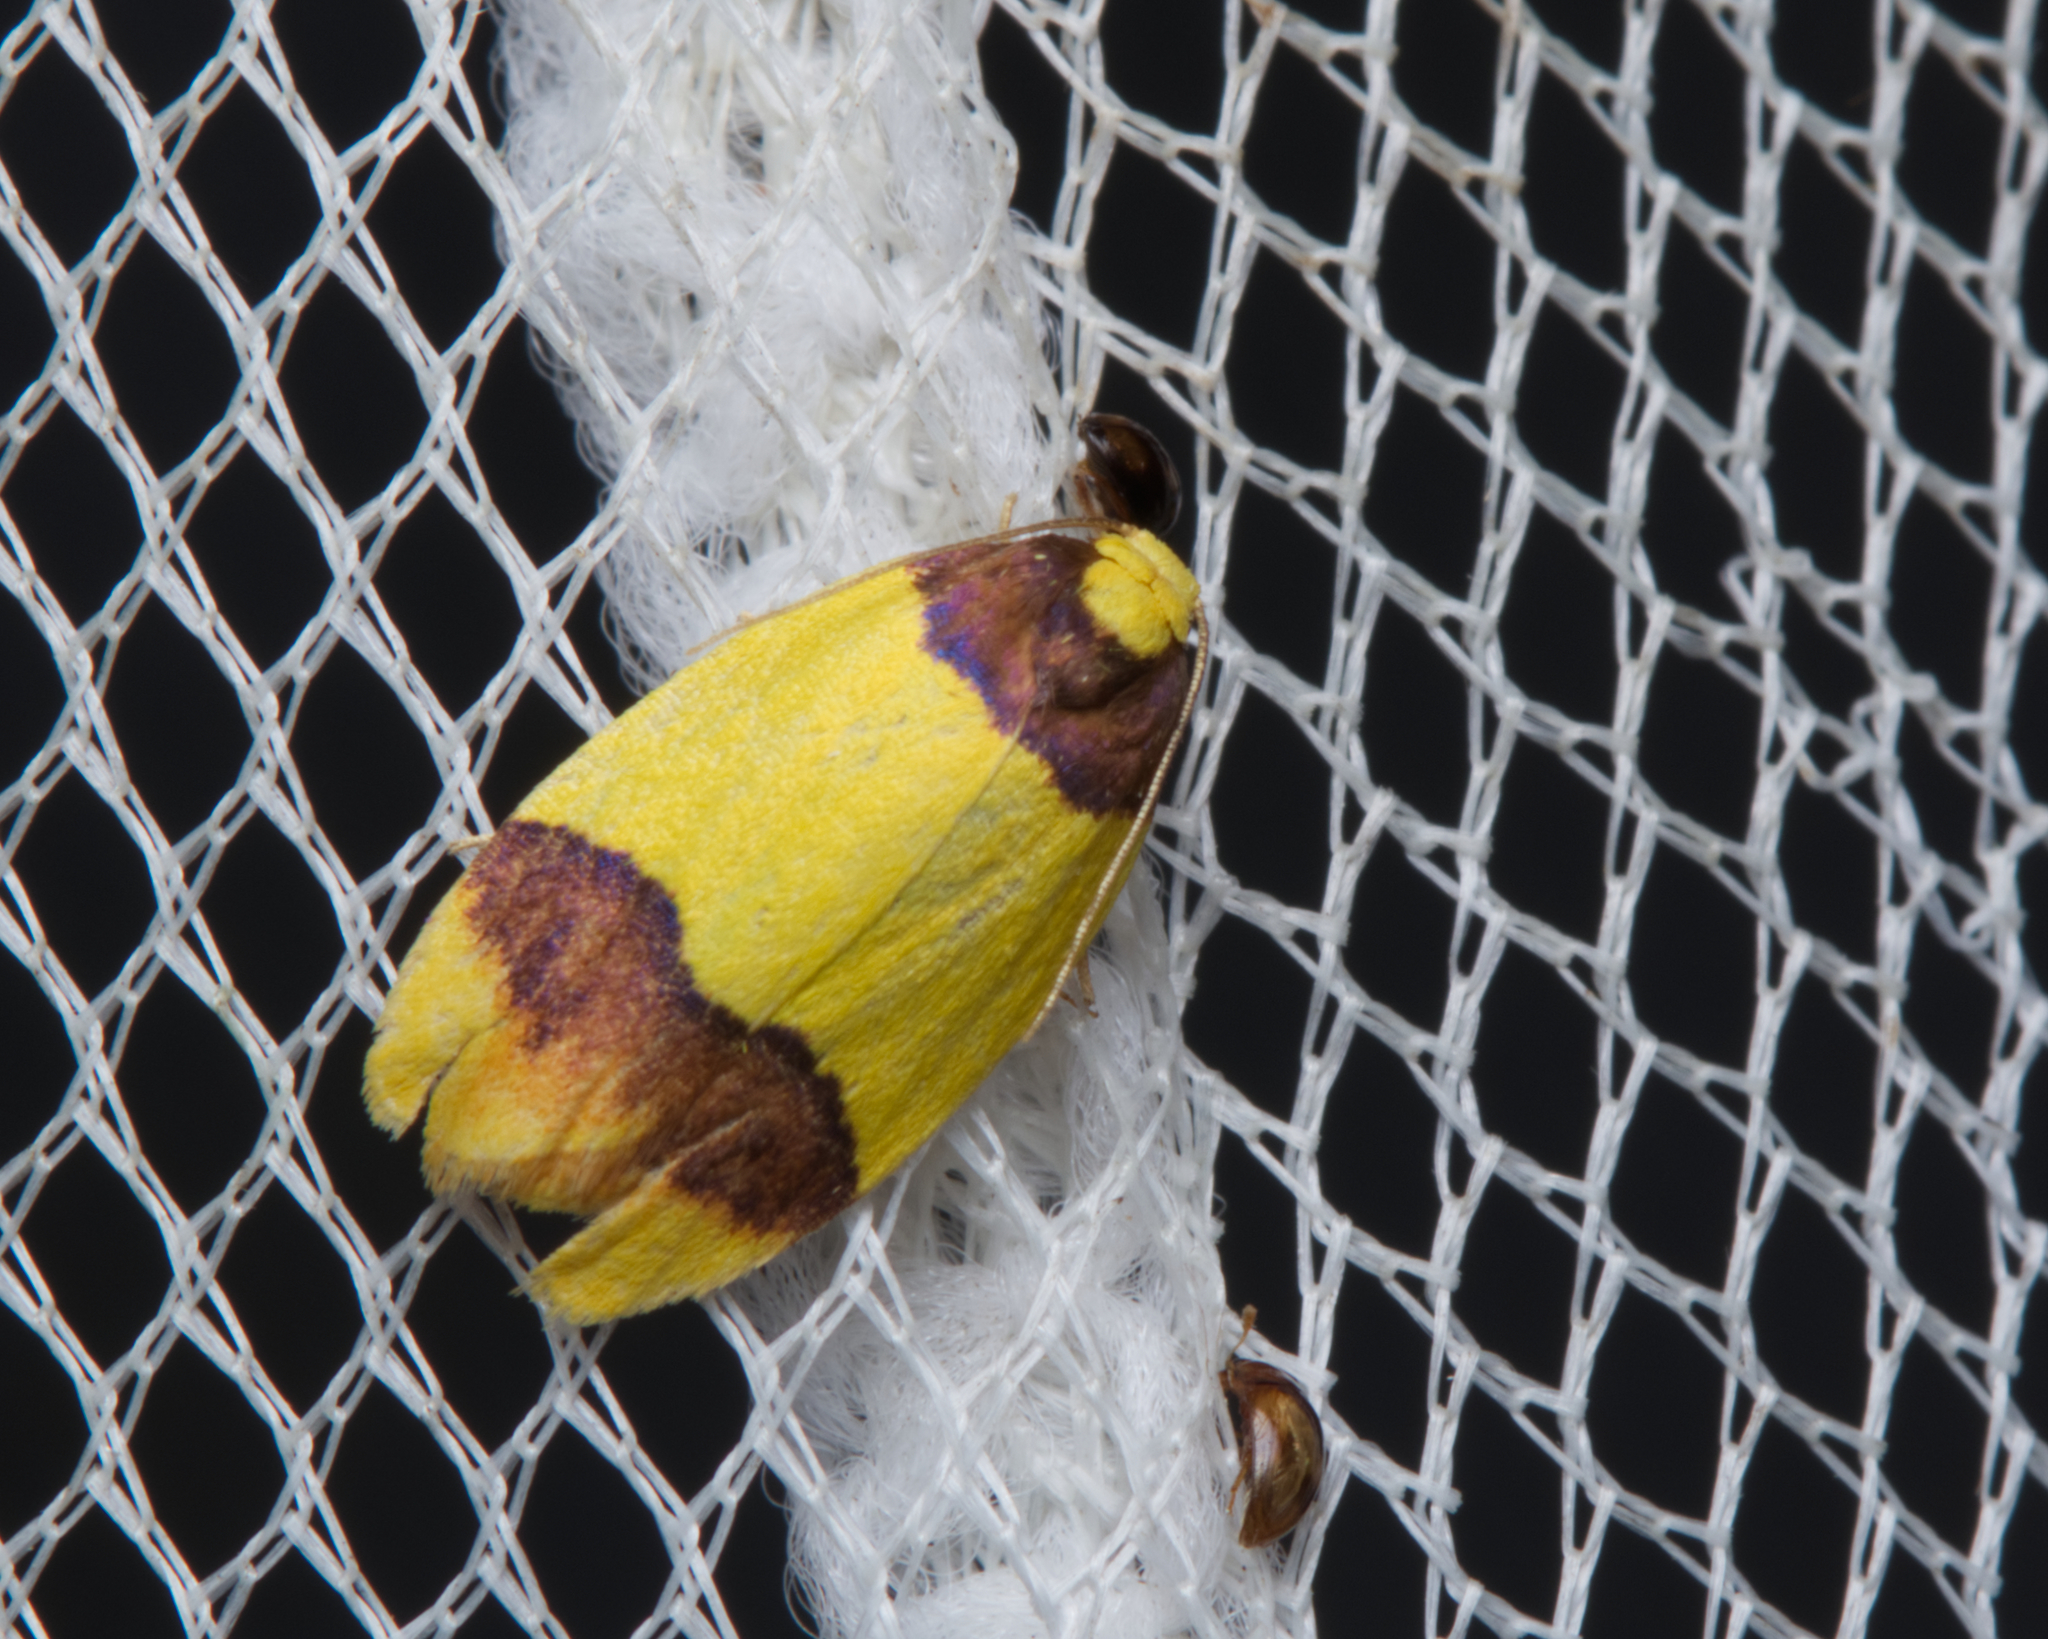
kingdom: Animalia
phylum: Arthropoda
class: Insecta
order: Lepidoptera
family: Erebidae
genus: Heterallactis
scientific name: Heterallactis euchrysa
